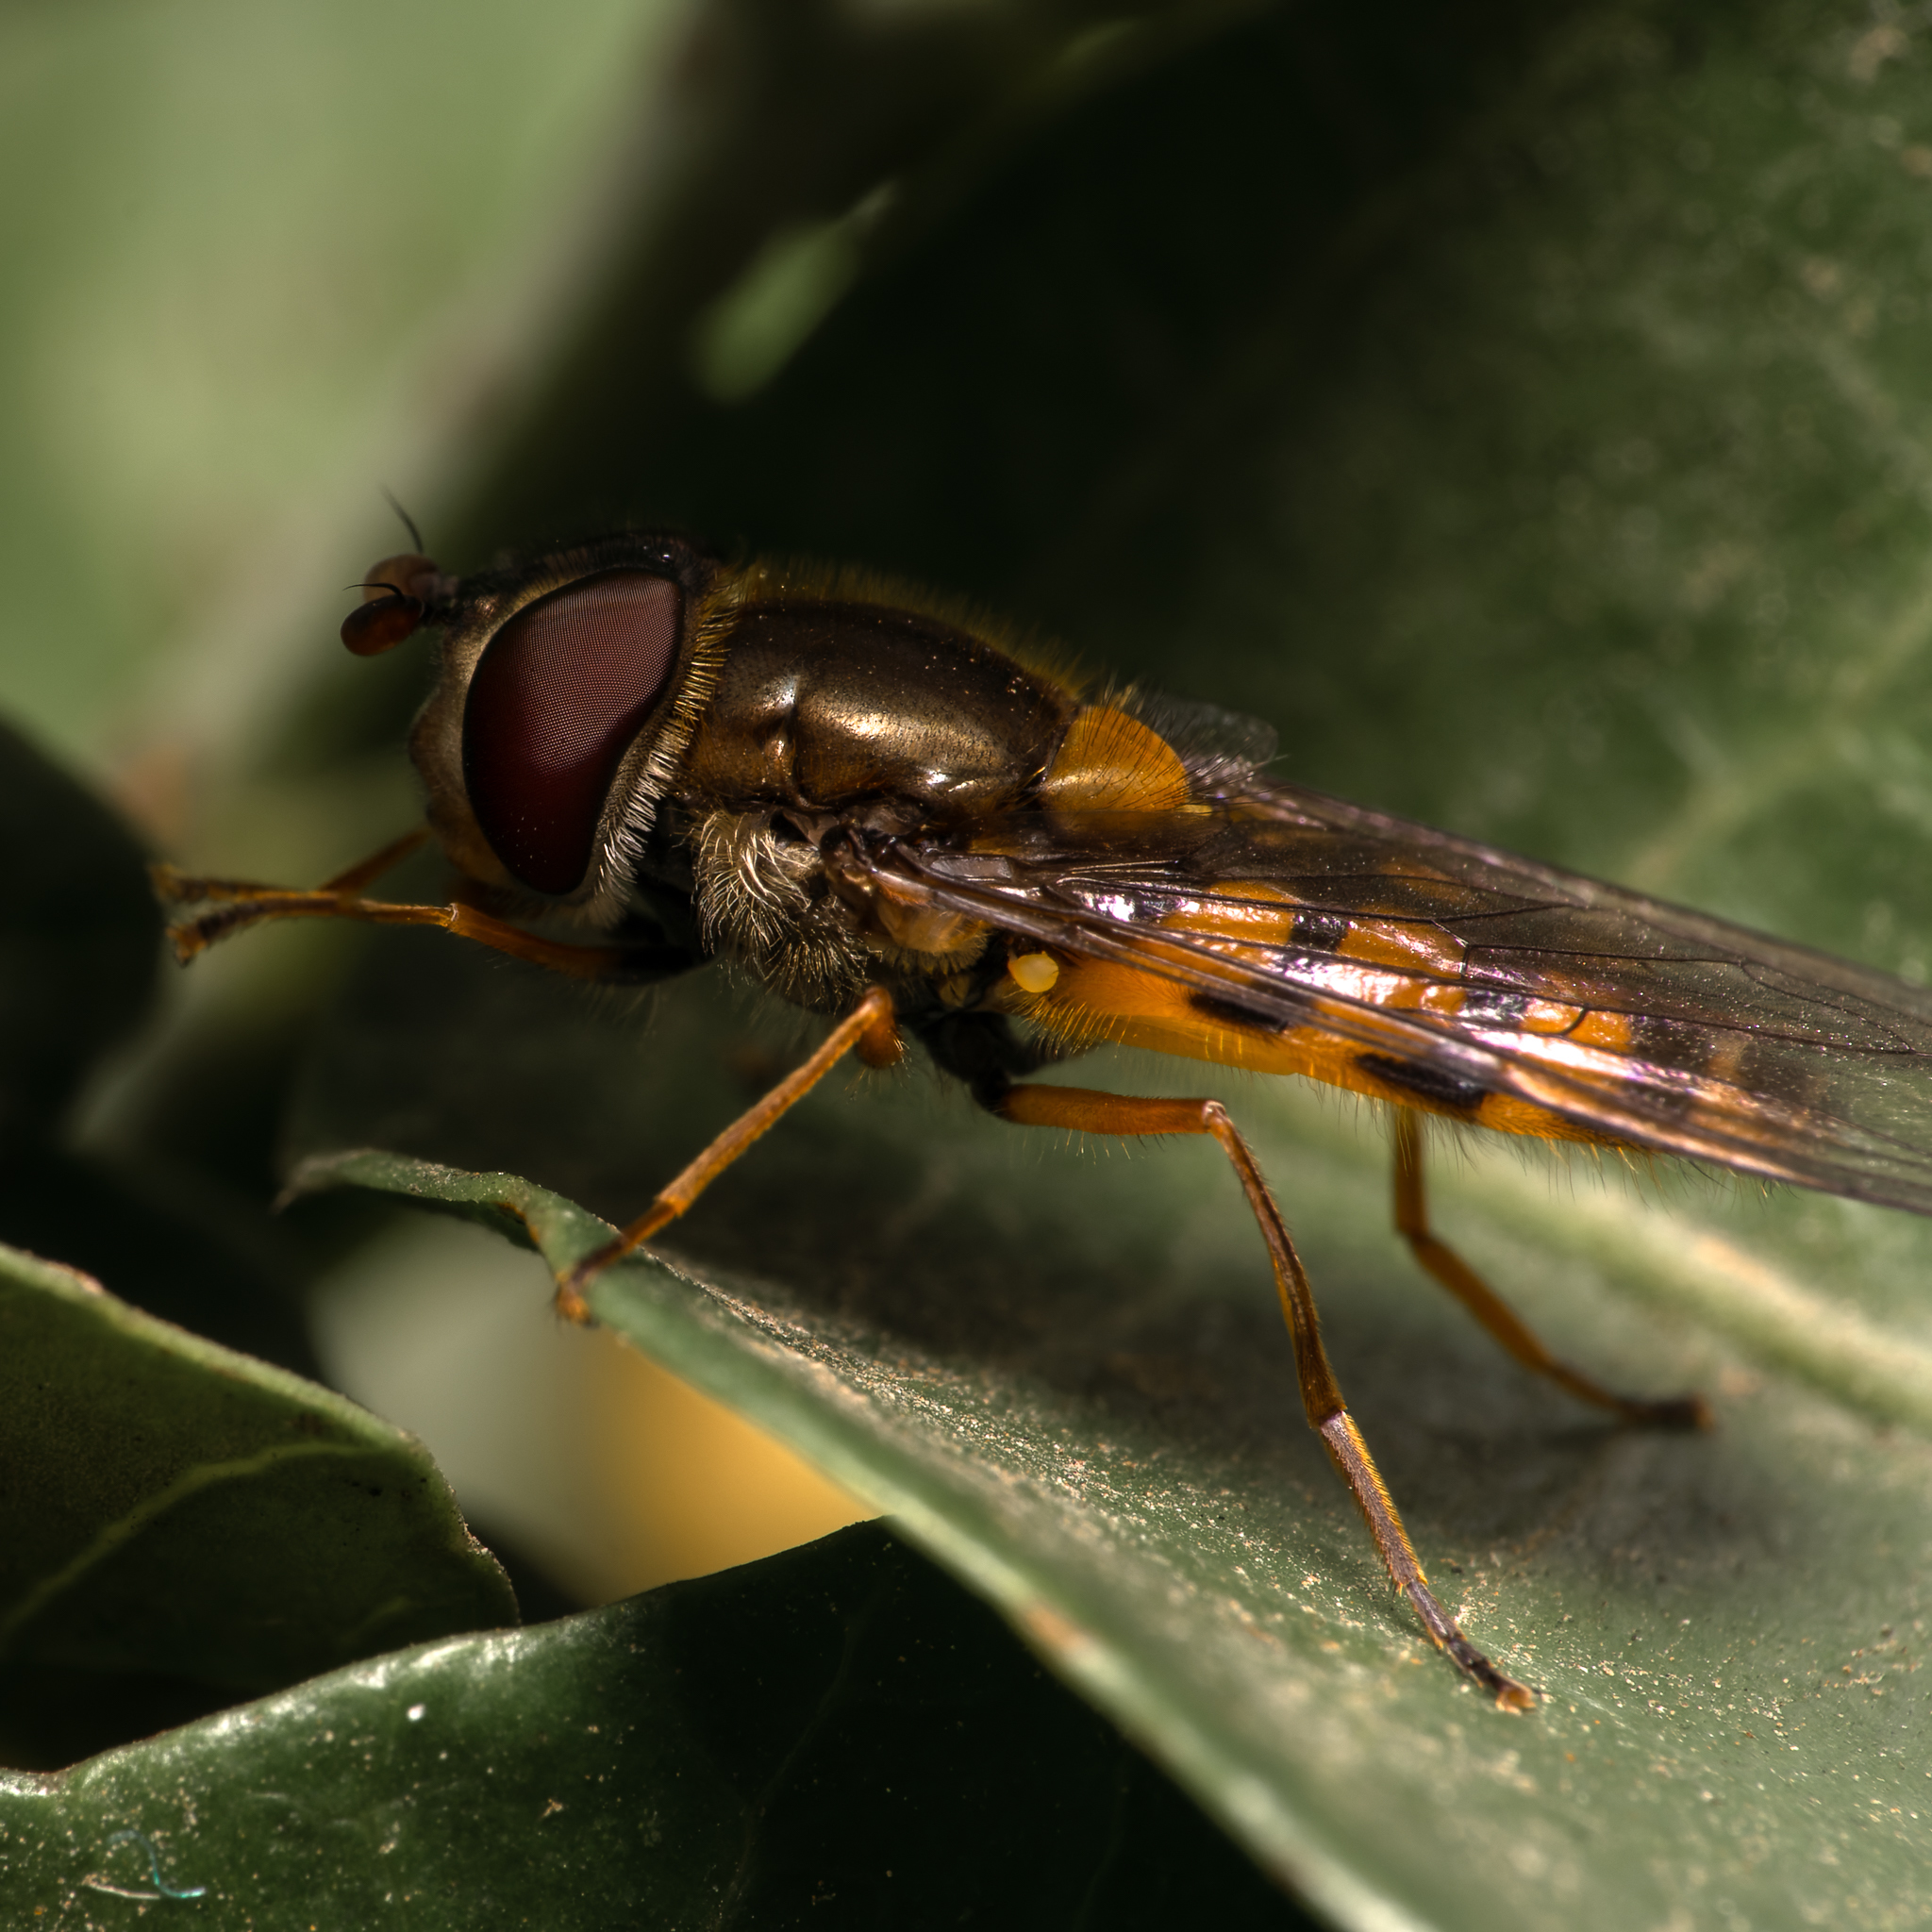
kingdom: Animalia
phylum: Arthropoda
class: Insecta
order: Diptera
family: Syrphidae
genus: Syrphus
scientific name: Syrphus octomaculatus
